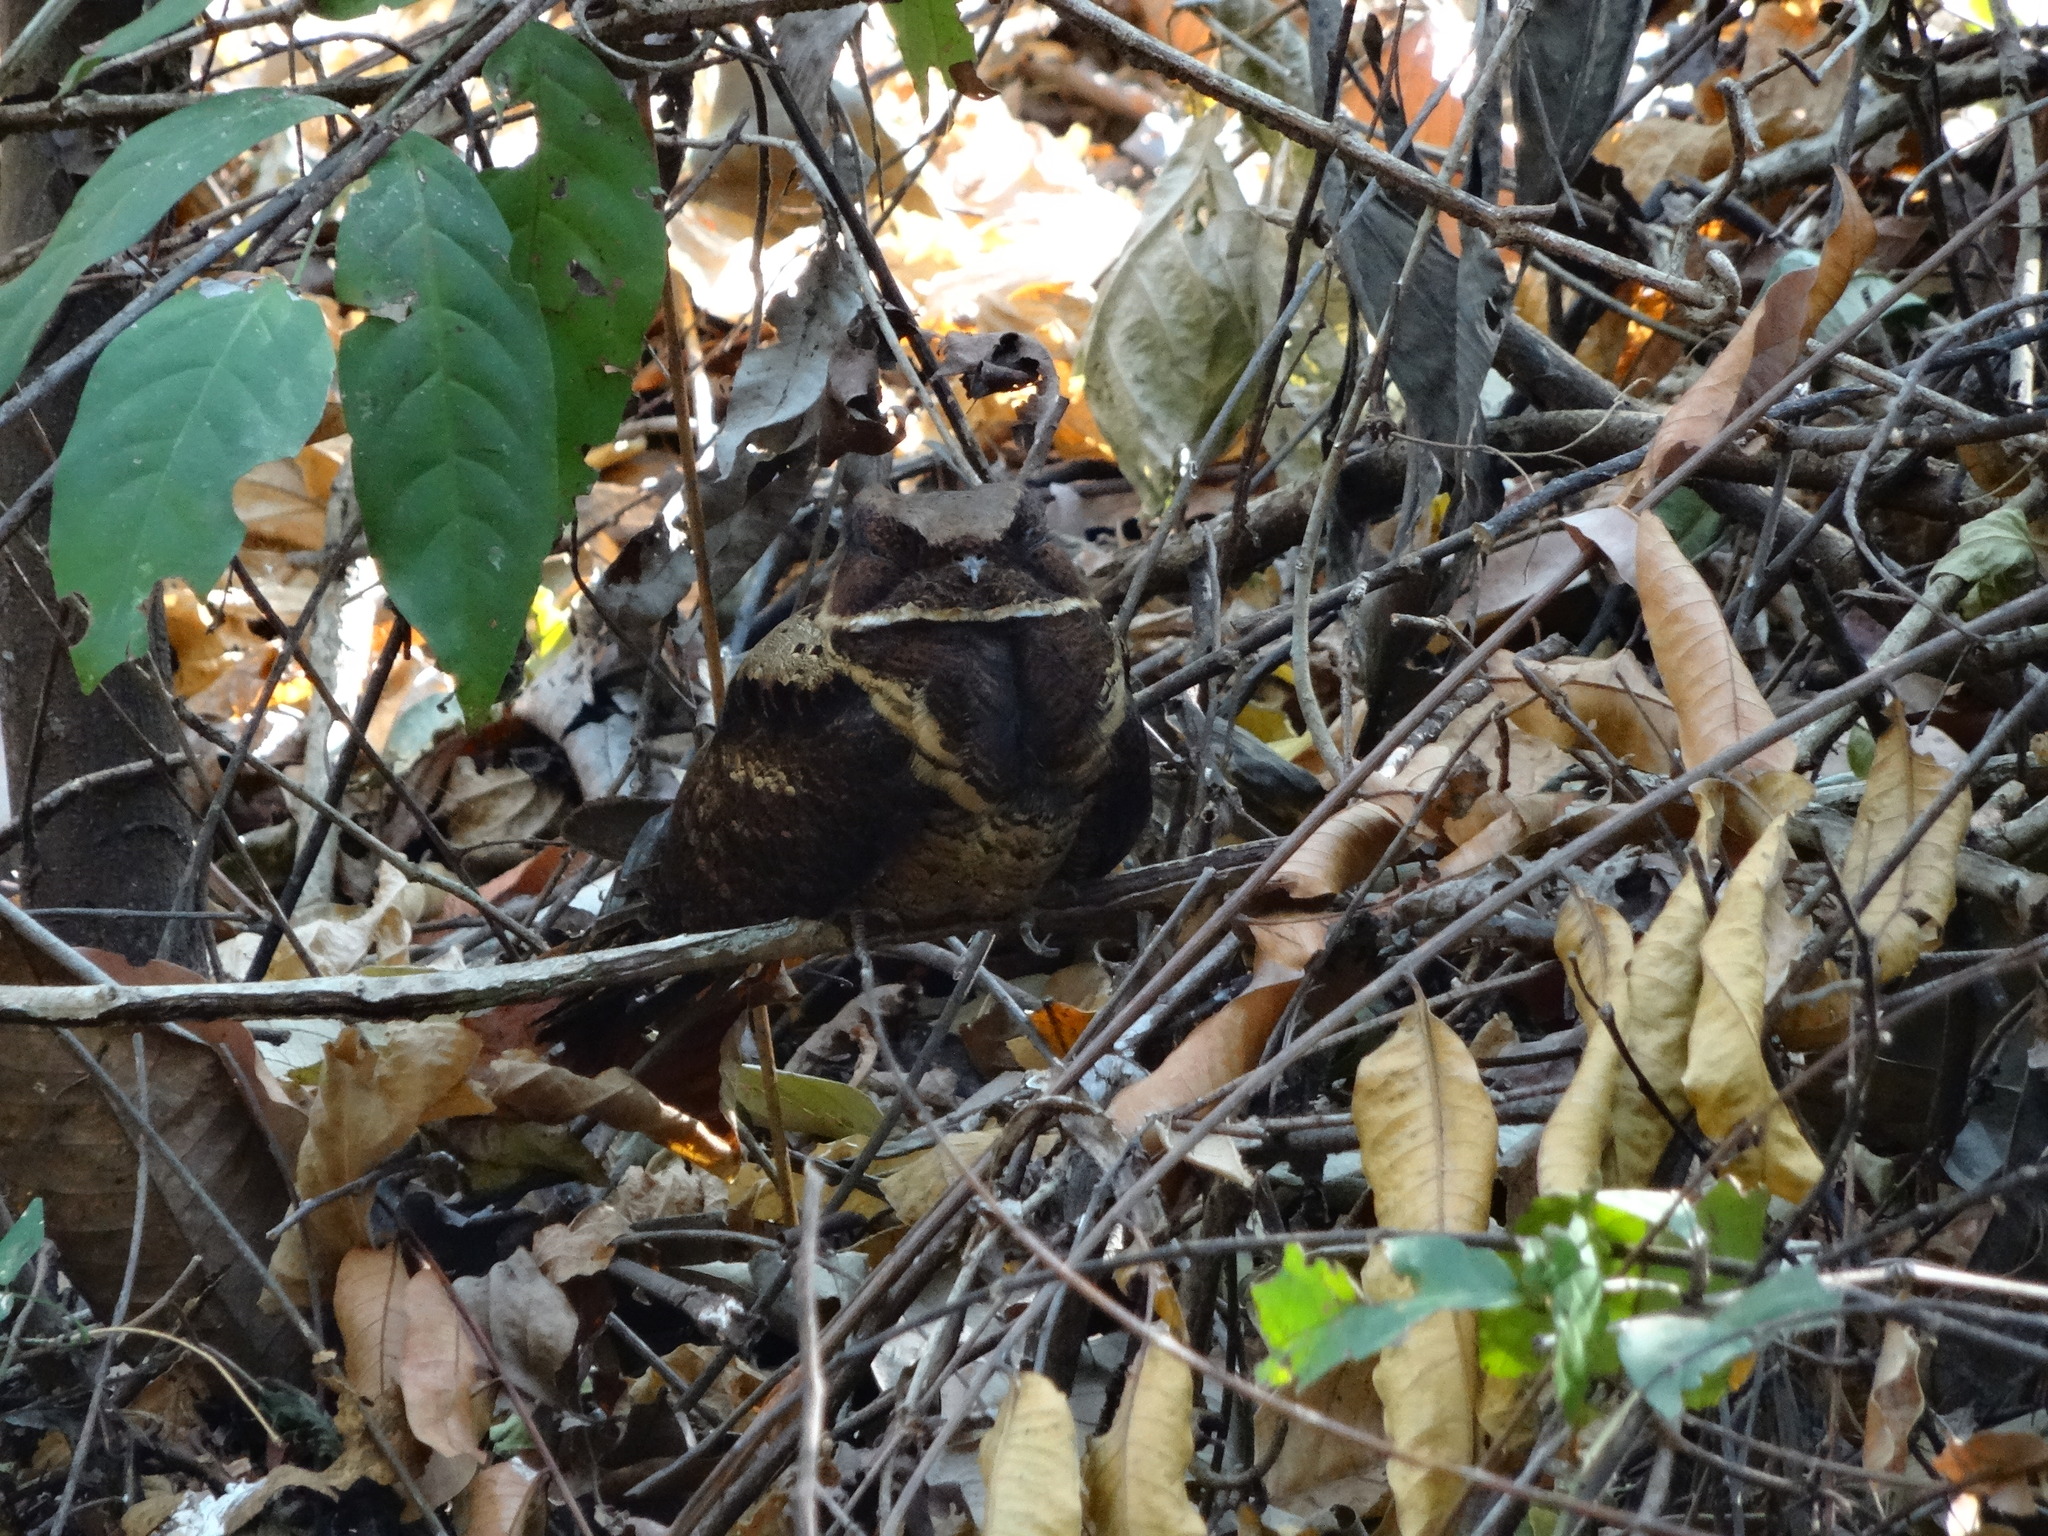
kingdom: Animalia
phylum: Chordata
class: Aves
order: Caprimulgiformes
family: Caprimulgidae
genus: Lyncornis
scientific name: Lyncornis macrotis
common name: Great eared-nightjar
